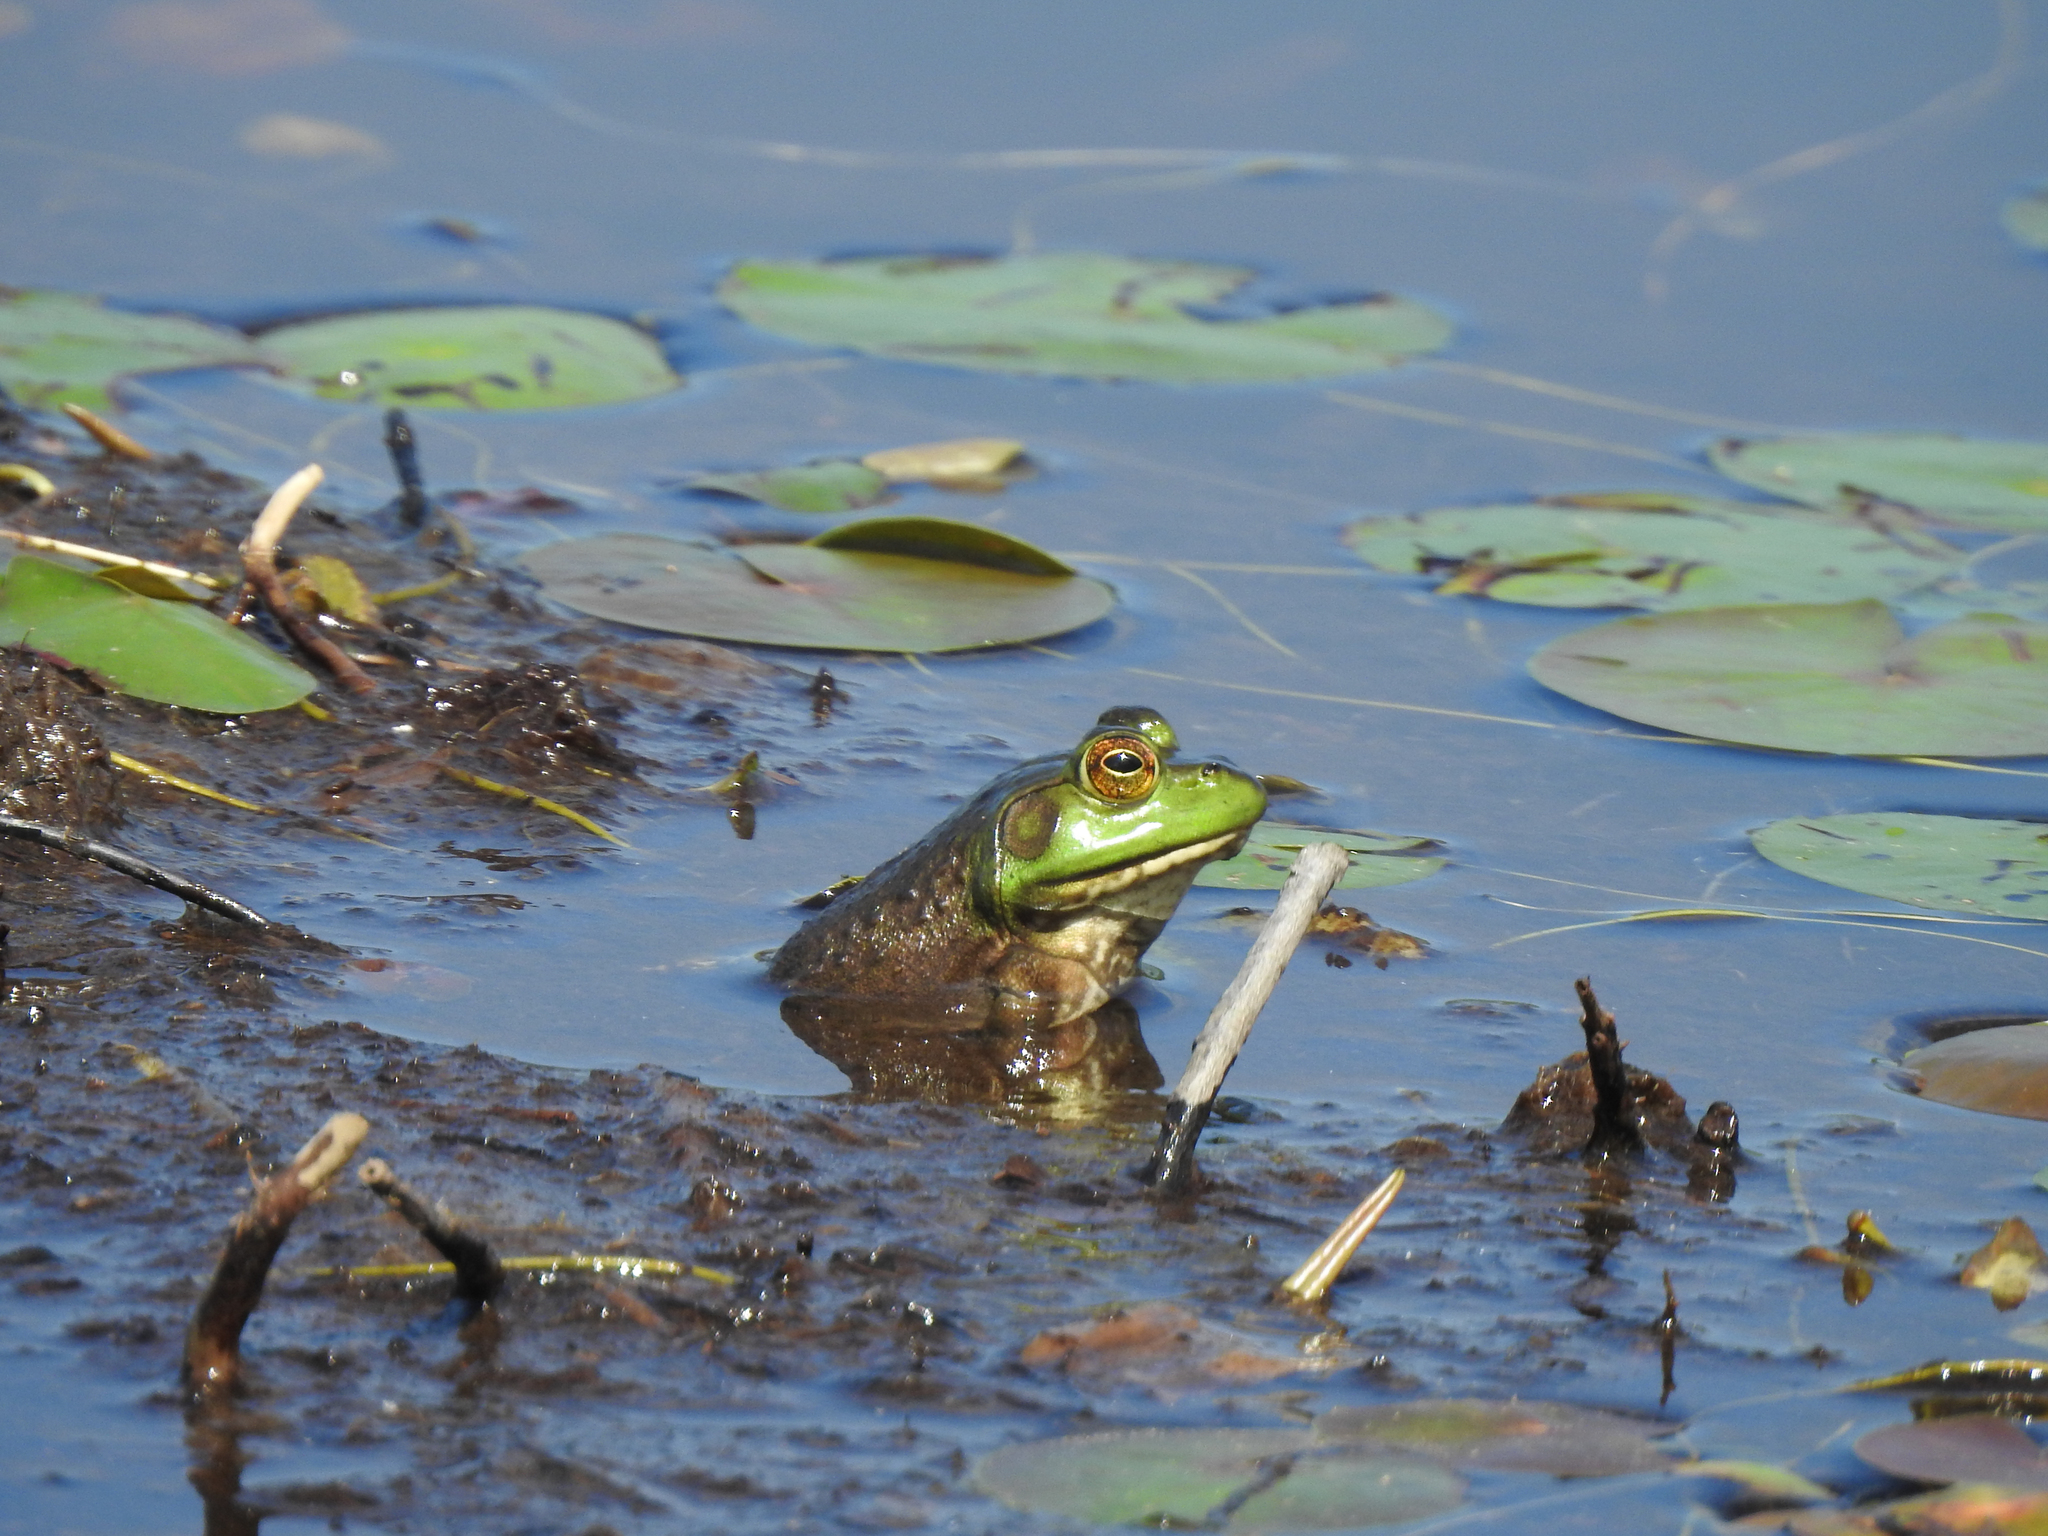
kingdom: Animalia
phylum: Chordata
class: Amphibia
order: Anura
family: Ranidae
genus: Lithobates
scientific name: Lithobates catesbeianus
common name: American bullfrog
